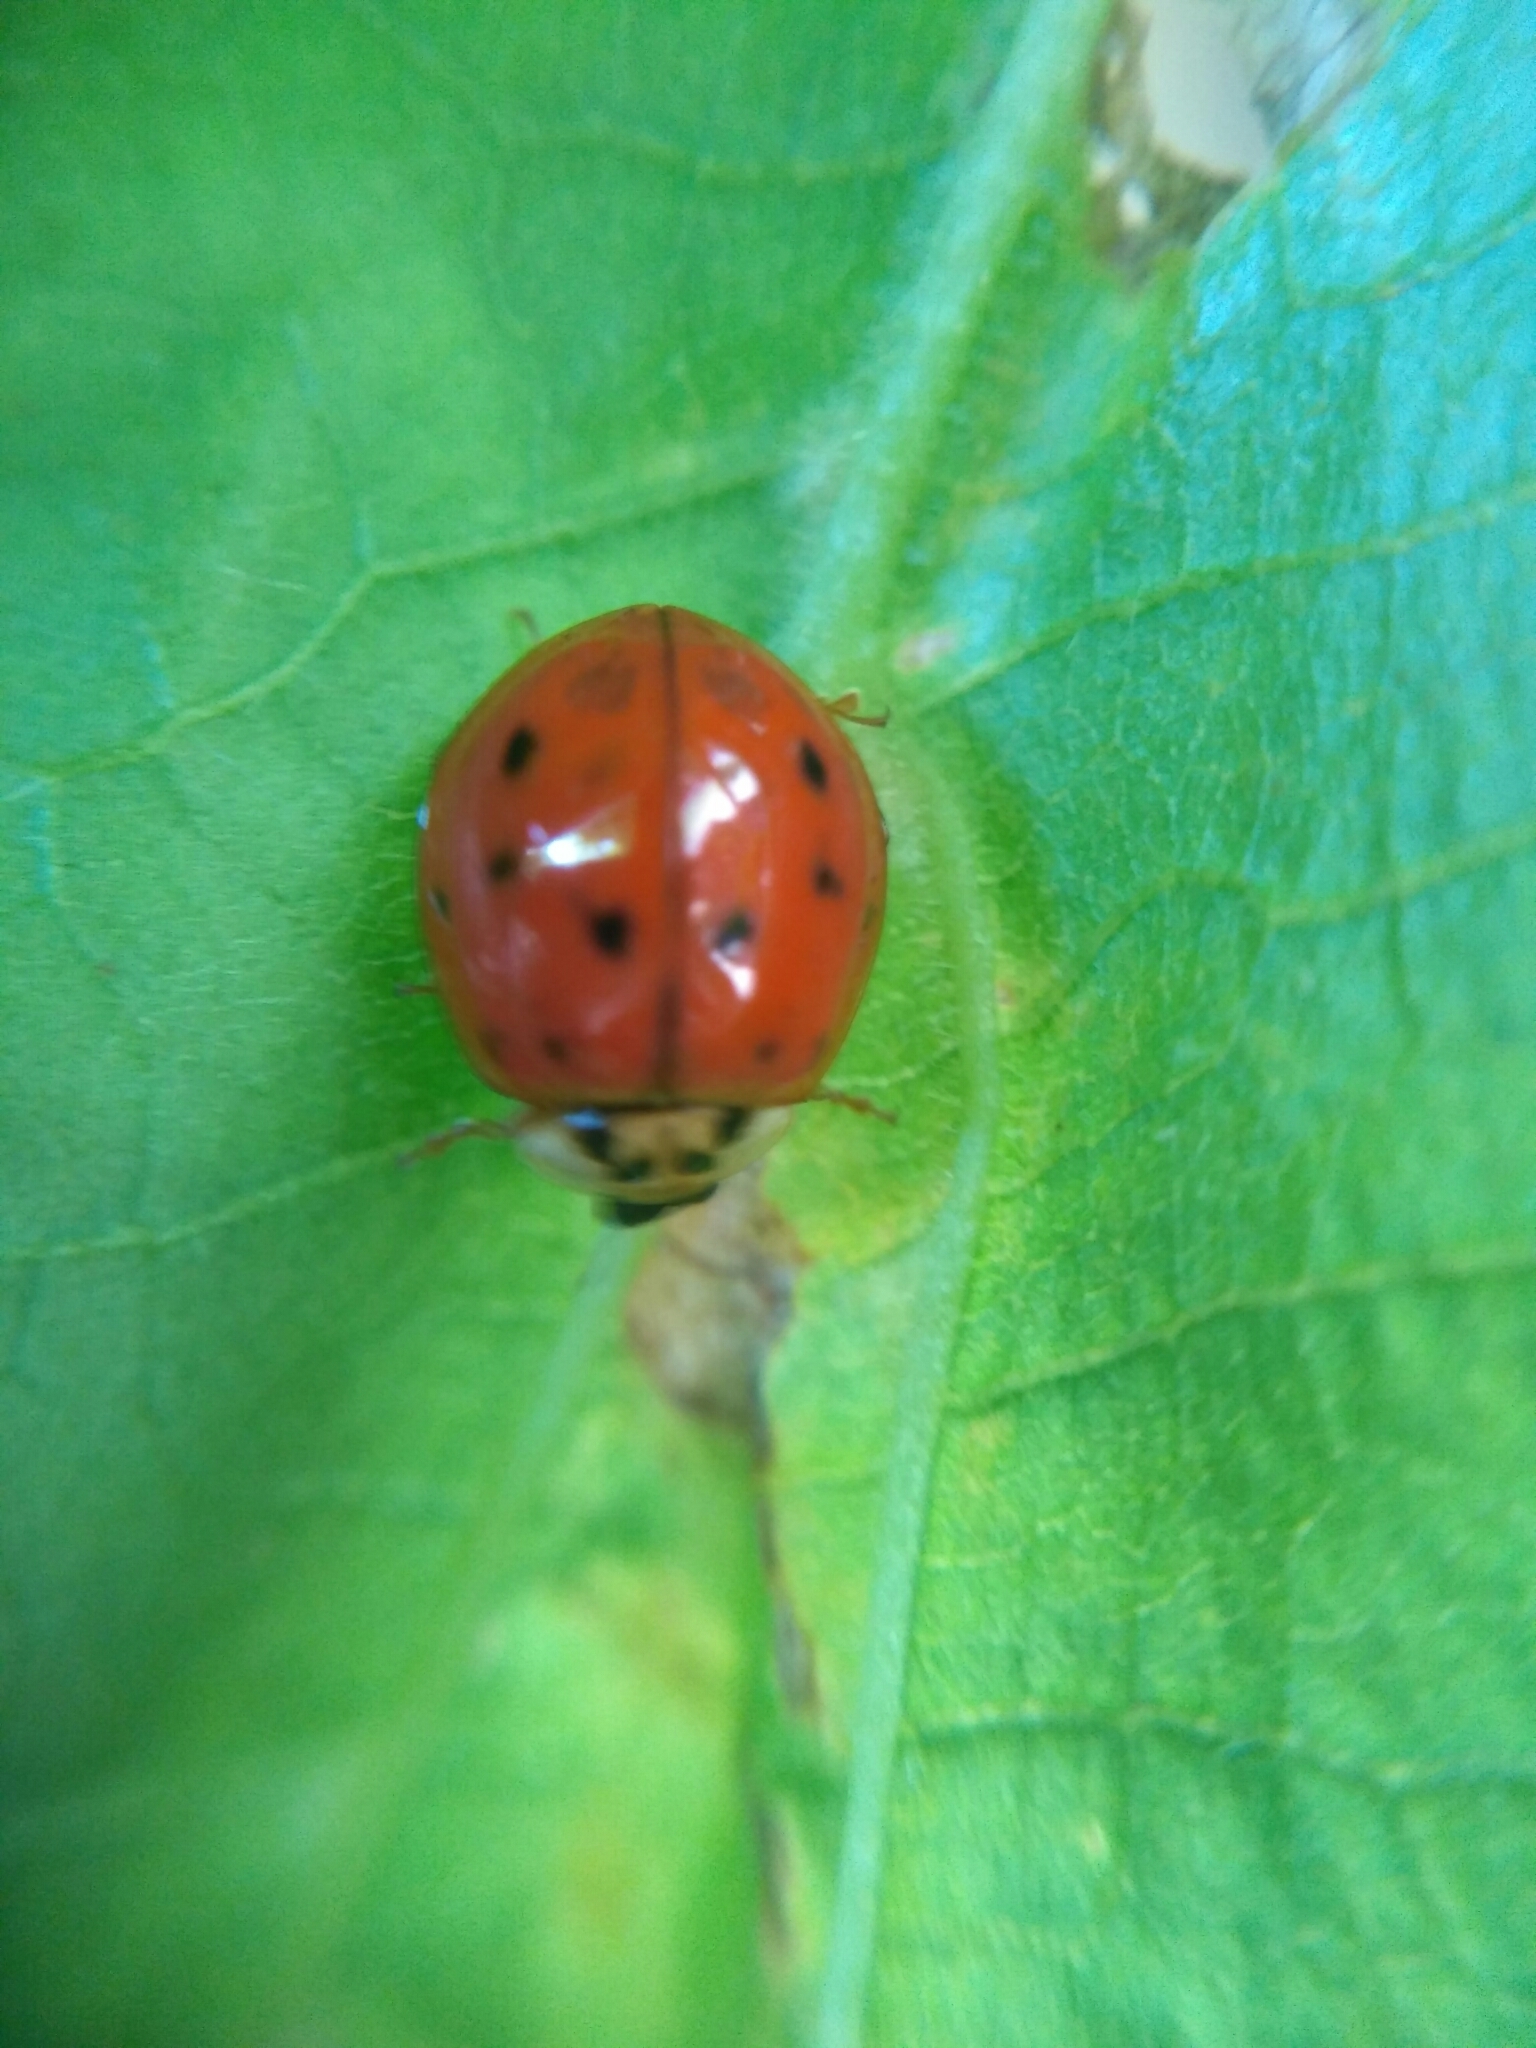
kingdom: Animalia
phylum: Arthropoda
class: Insecta
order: Coleoptera
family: Coccinellidae
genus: Harmonia
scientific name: Harmonia axyridis
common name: Harlequin ladybird
